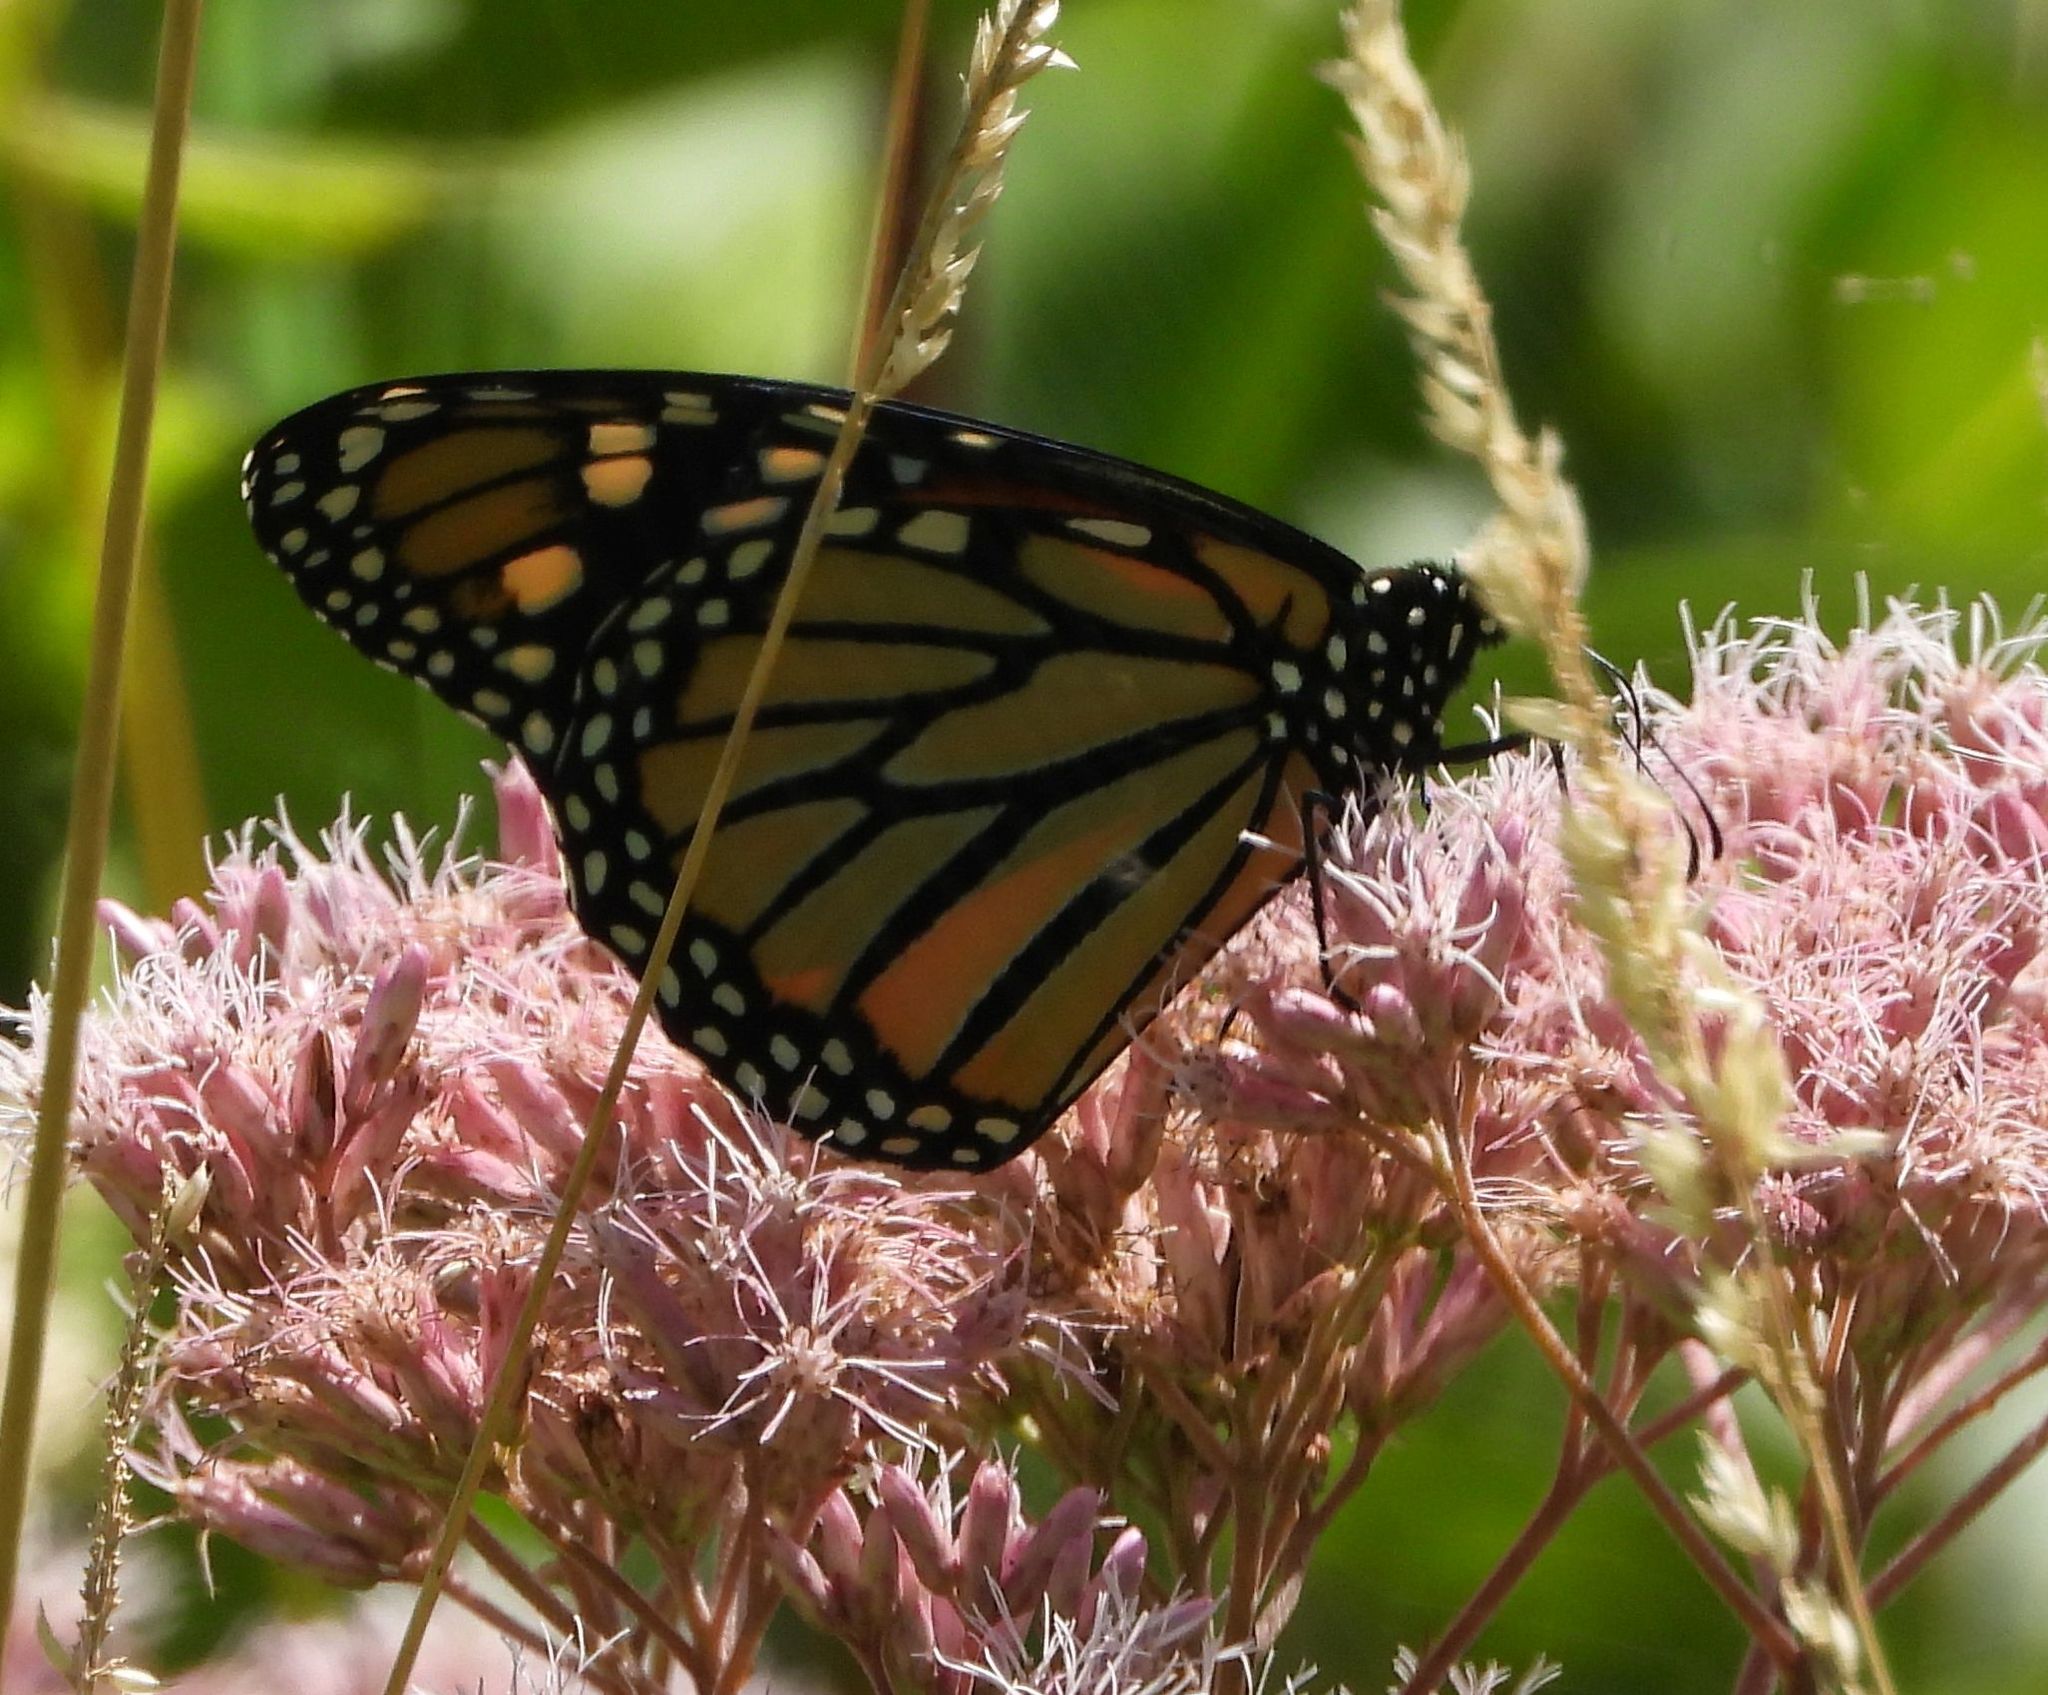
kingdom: Animalia
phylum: Arthropoda
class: Insecta
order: Lepidoptera
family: Nymphalidae
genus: Danaus
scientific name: Danaus plexippus
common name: Monarch
